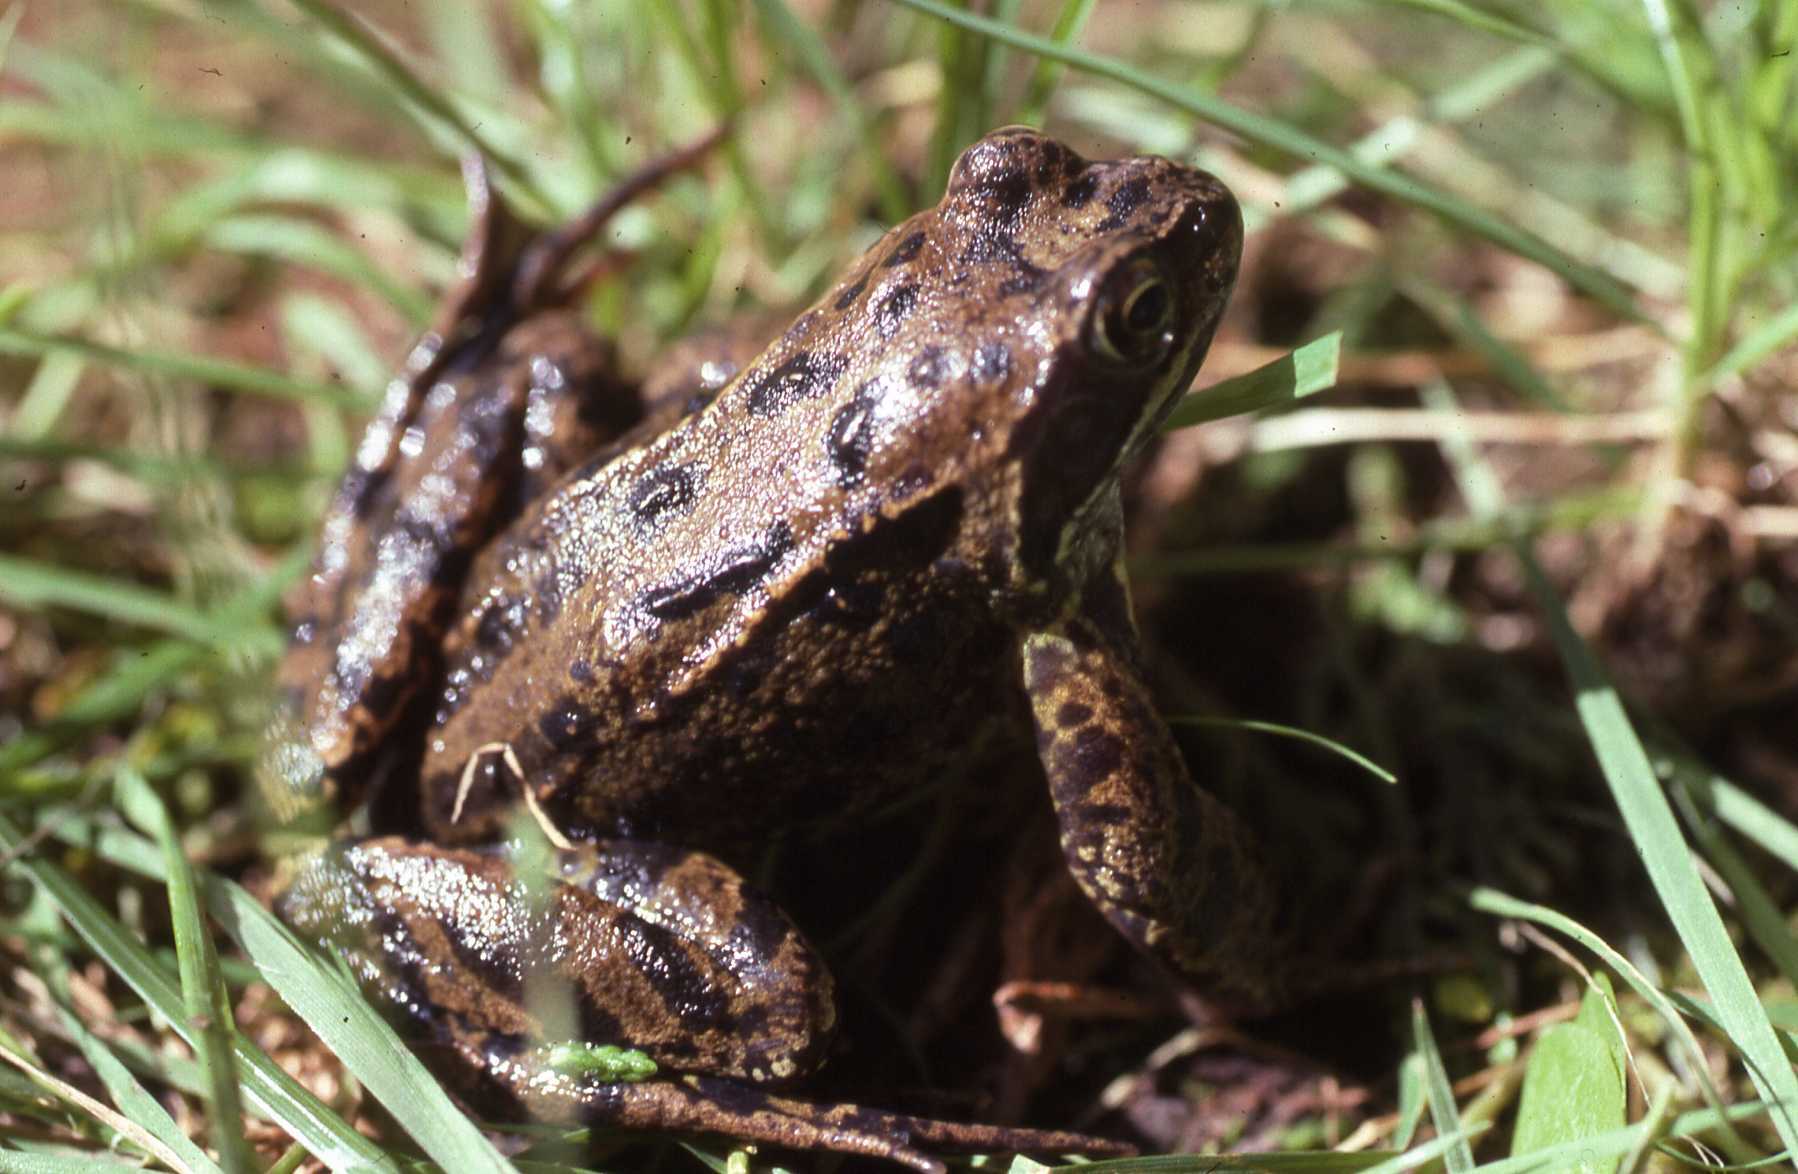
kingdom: Animalia
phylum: Chordata
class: Amphibia
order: Anura
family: Ranidae
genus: Rana
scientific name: Rana temporaria
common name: Common frog
